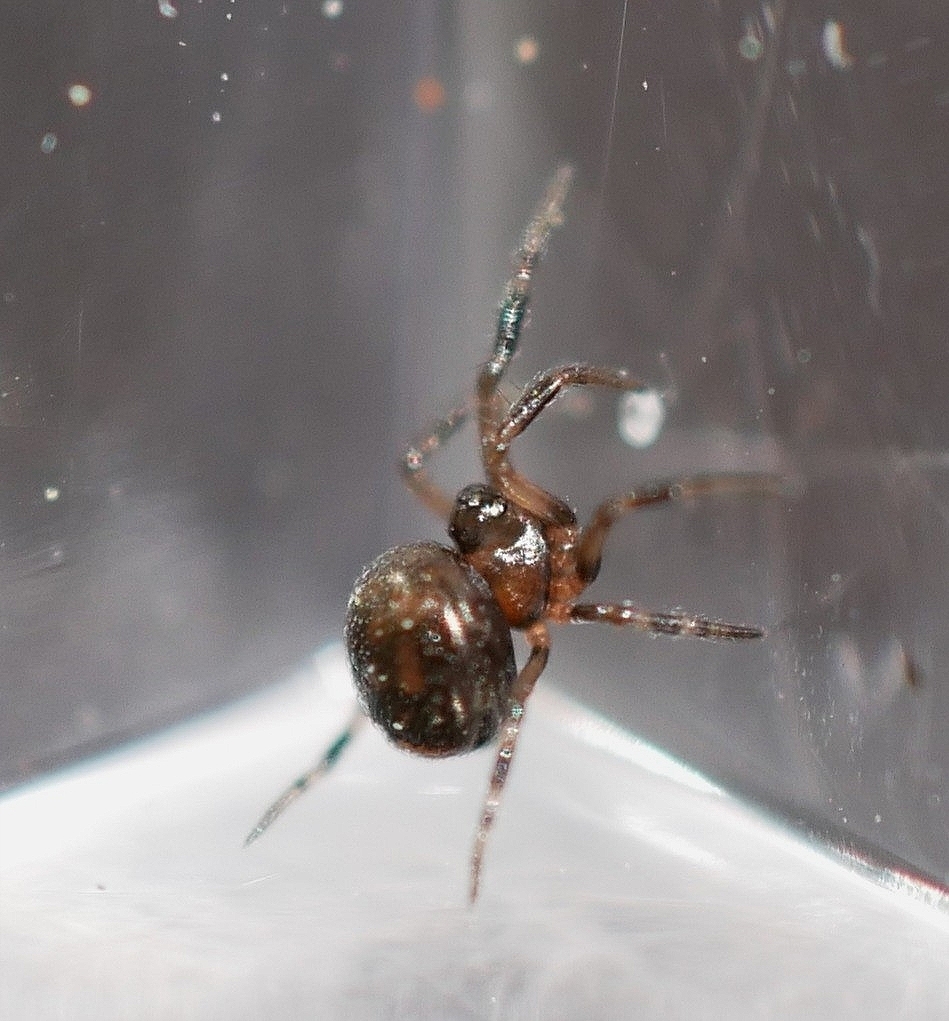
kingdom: Animalia
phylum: Arthropoda
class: Arachnida
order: Araneae
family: Anapidae
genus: Gertschanapis
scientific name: Gertschanapis shantzi
